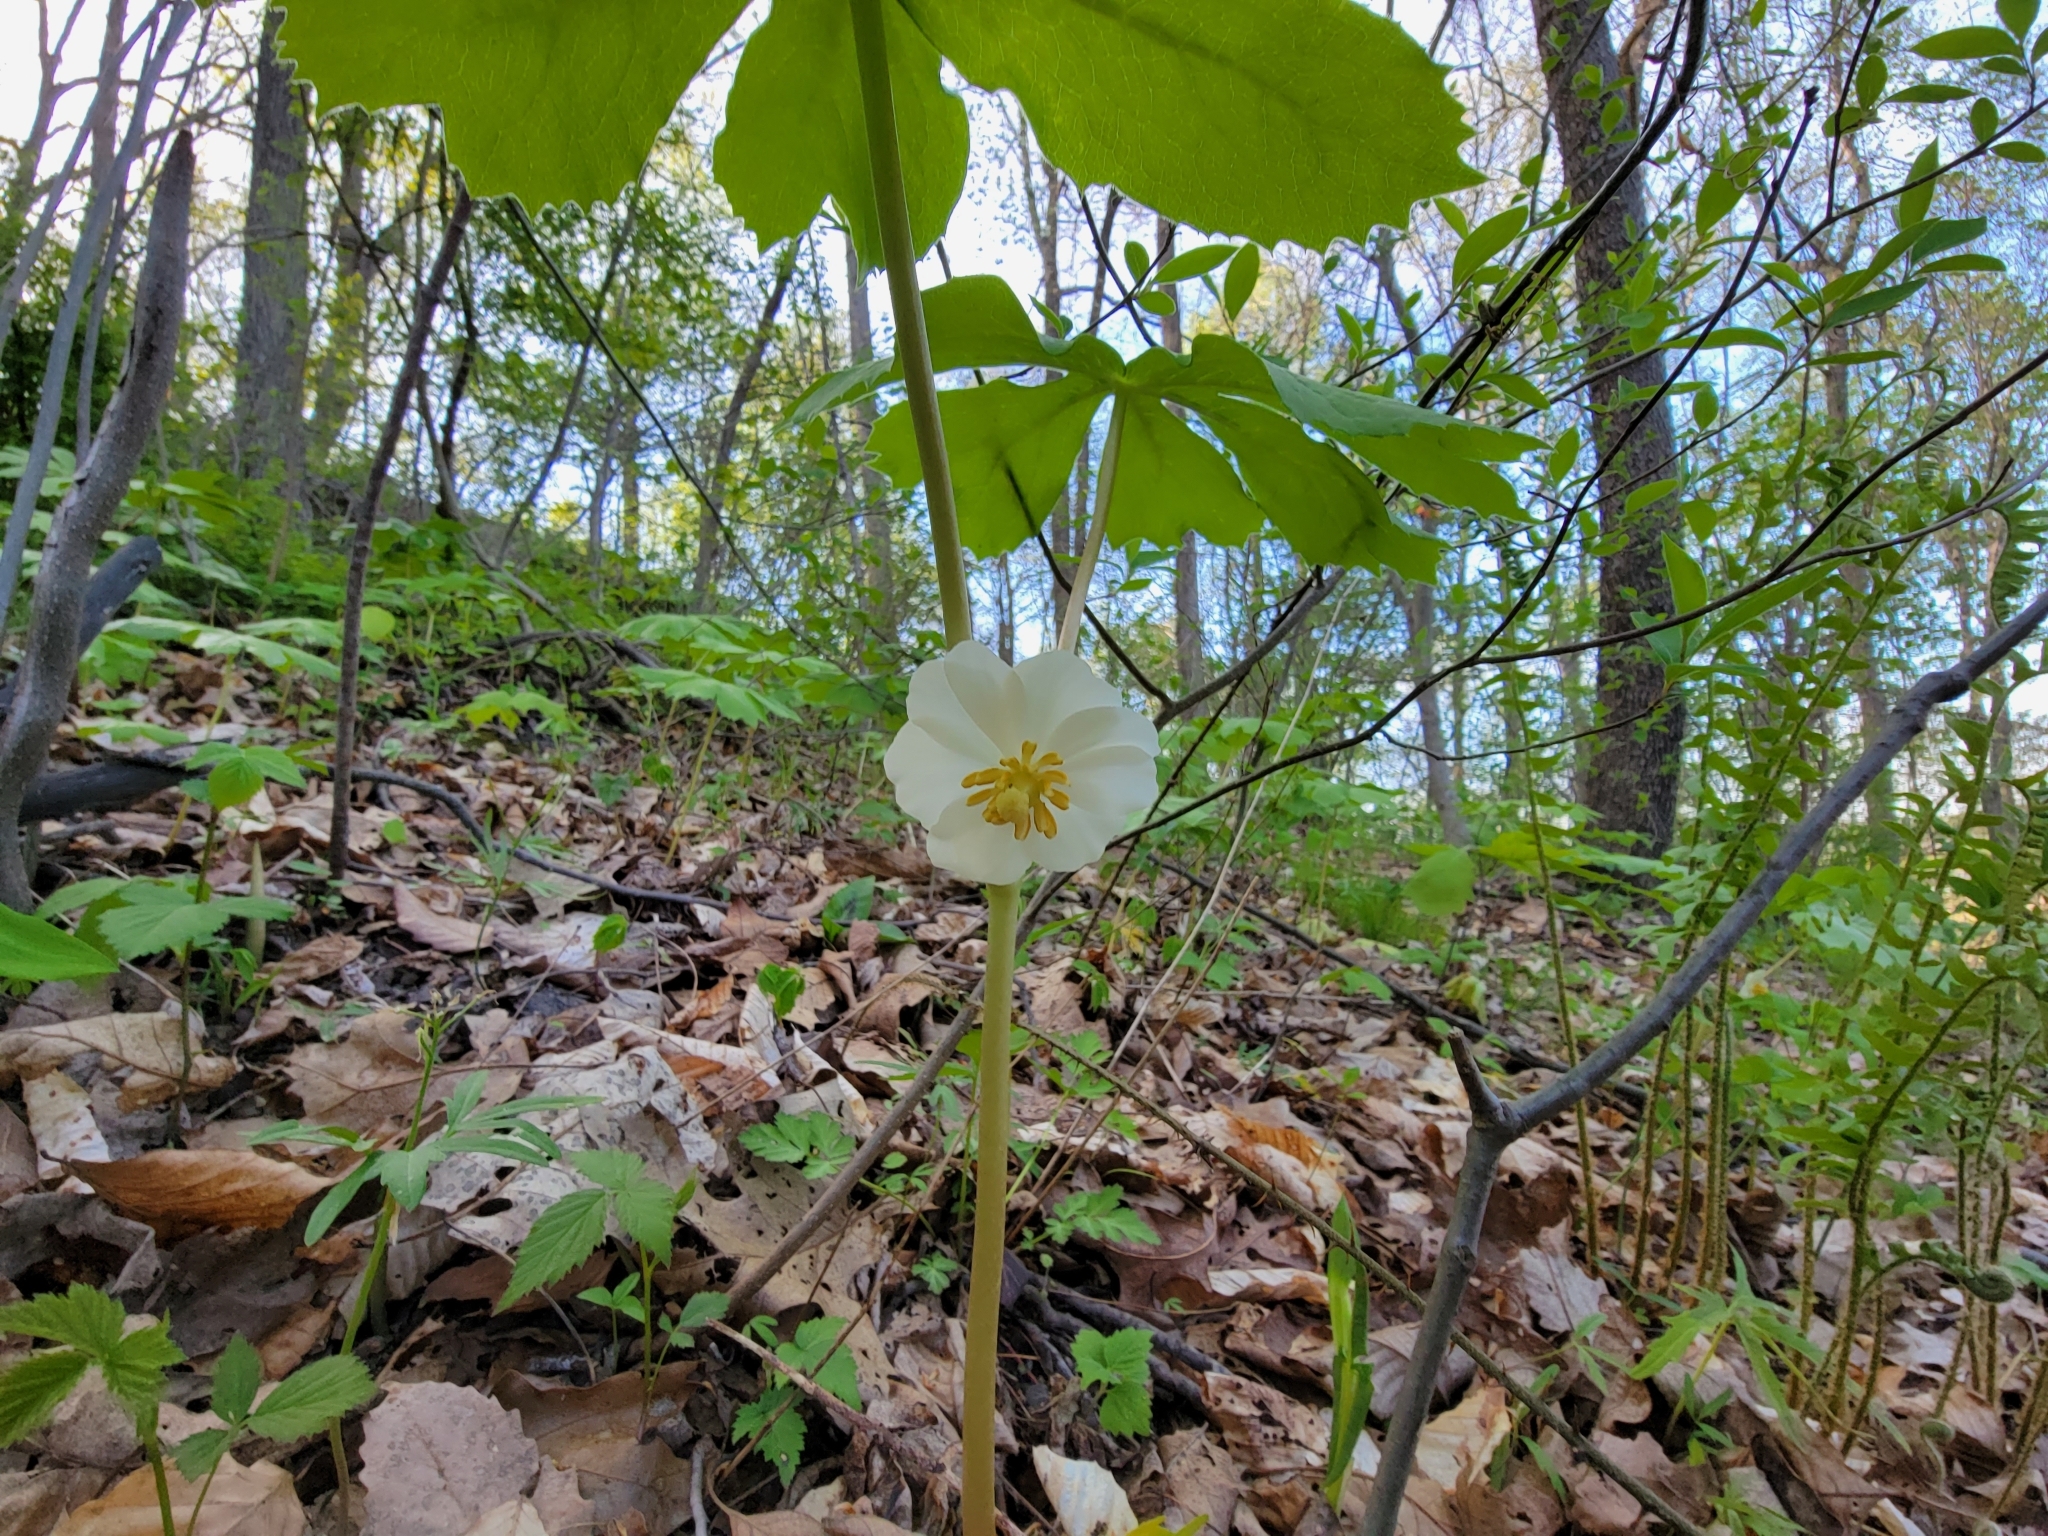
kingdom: Plantae
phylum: Tracheophyta
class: Magnoliopsida
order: Ranunculales
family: Berberidaceae
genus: Podophyllum
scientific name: Podophyllum peltatum
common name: Wild mandrake
